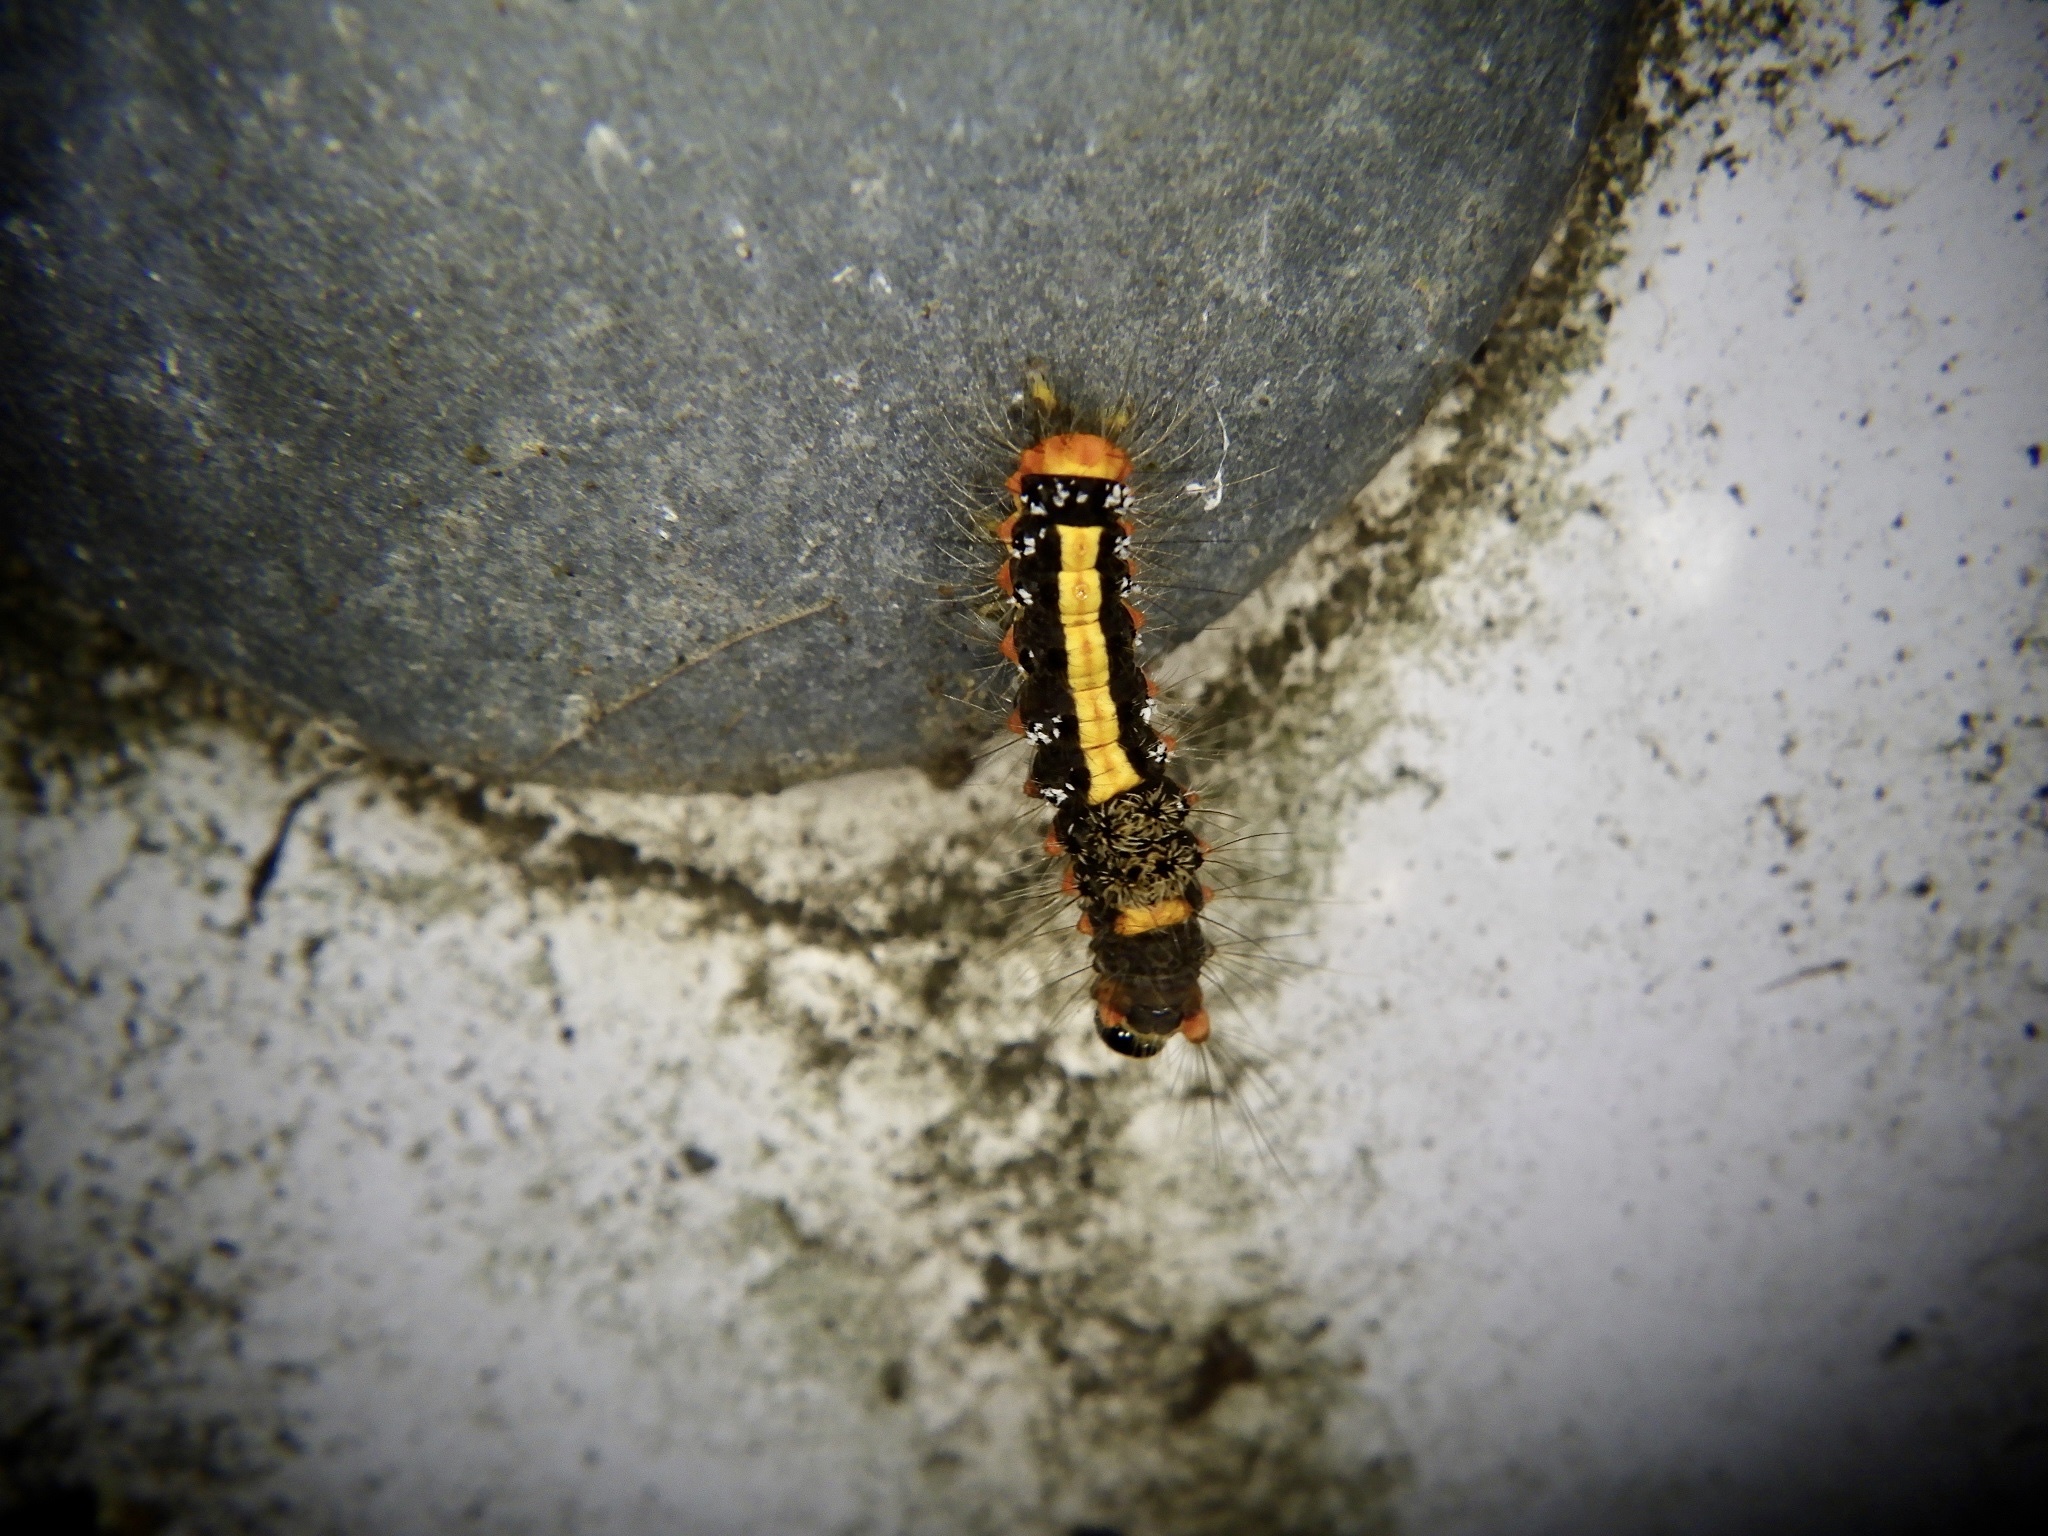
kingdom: Animalia
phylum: Arthropoda
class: Insecta
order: Lepidoptera
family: Erebidae
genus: Somena
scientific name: Somena
